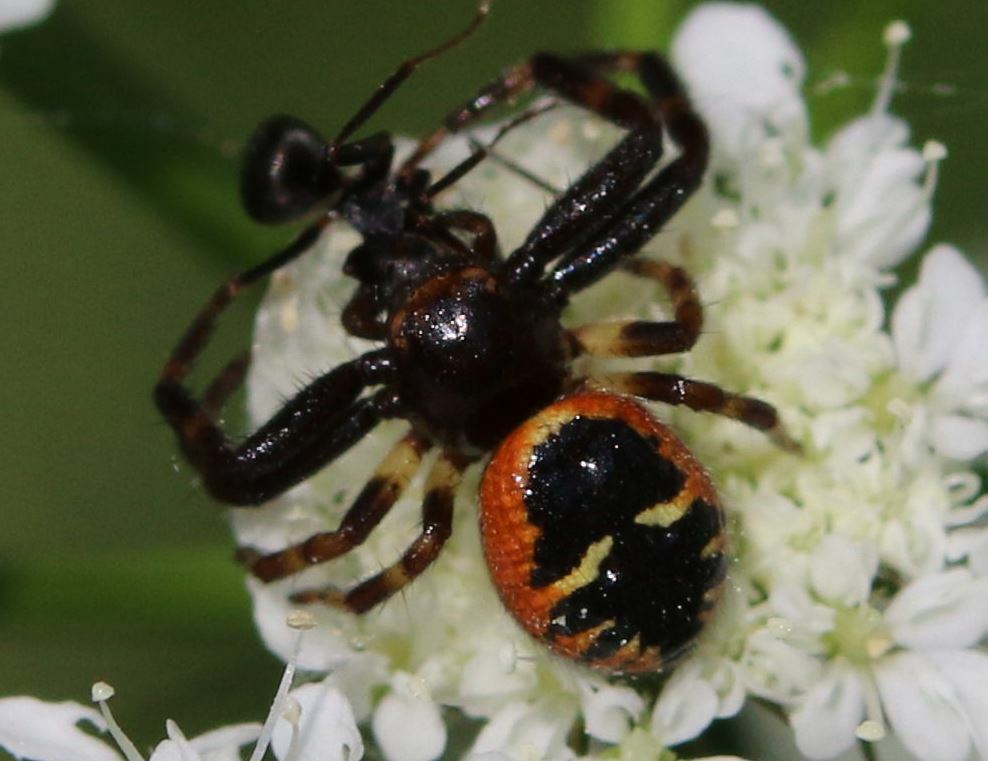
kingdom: Animalia
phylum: Arthropoda
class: Arachnida
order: Araneae
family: Thomisidae
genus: Synema
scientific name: Synema globosum
